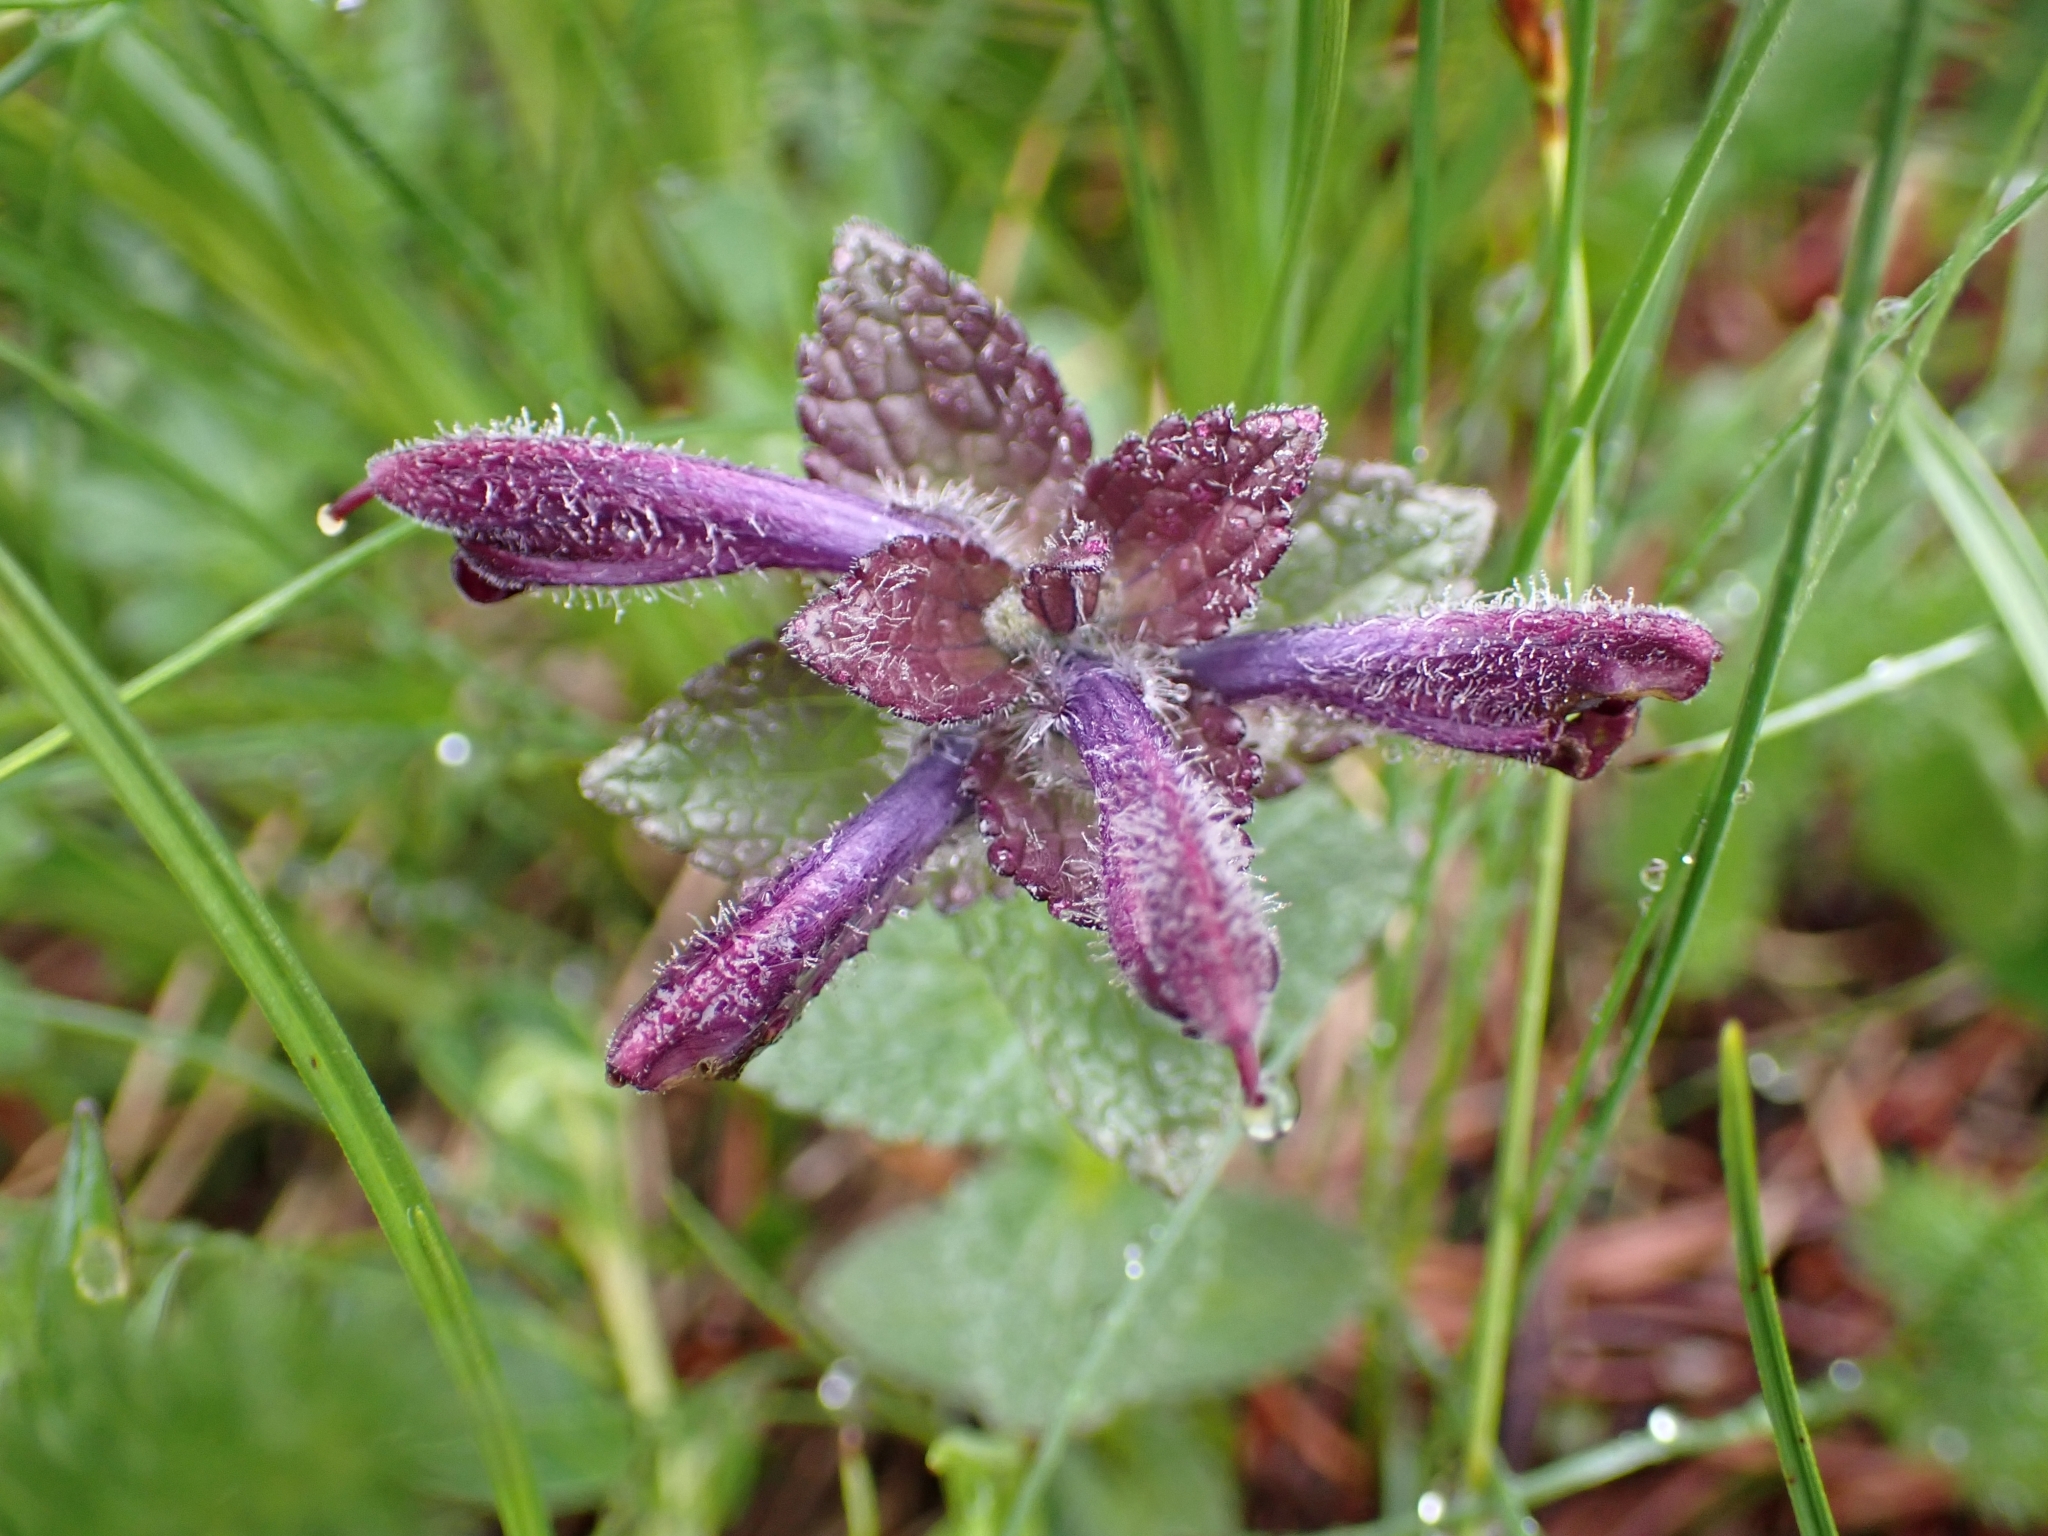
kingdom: Plantae
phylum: Tracheophyta
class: Magnoliopsida
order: Lamiales
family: Orobanchaceae
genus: Bartsia
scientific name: Bartsia alpina
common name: Alpine bartsia
